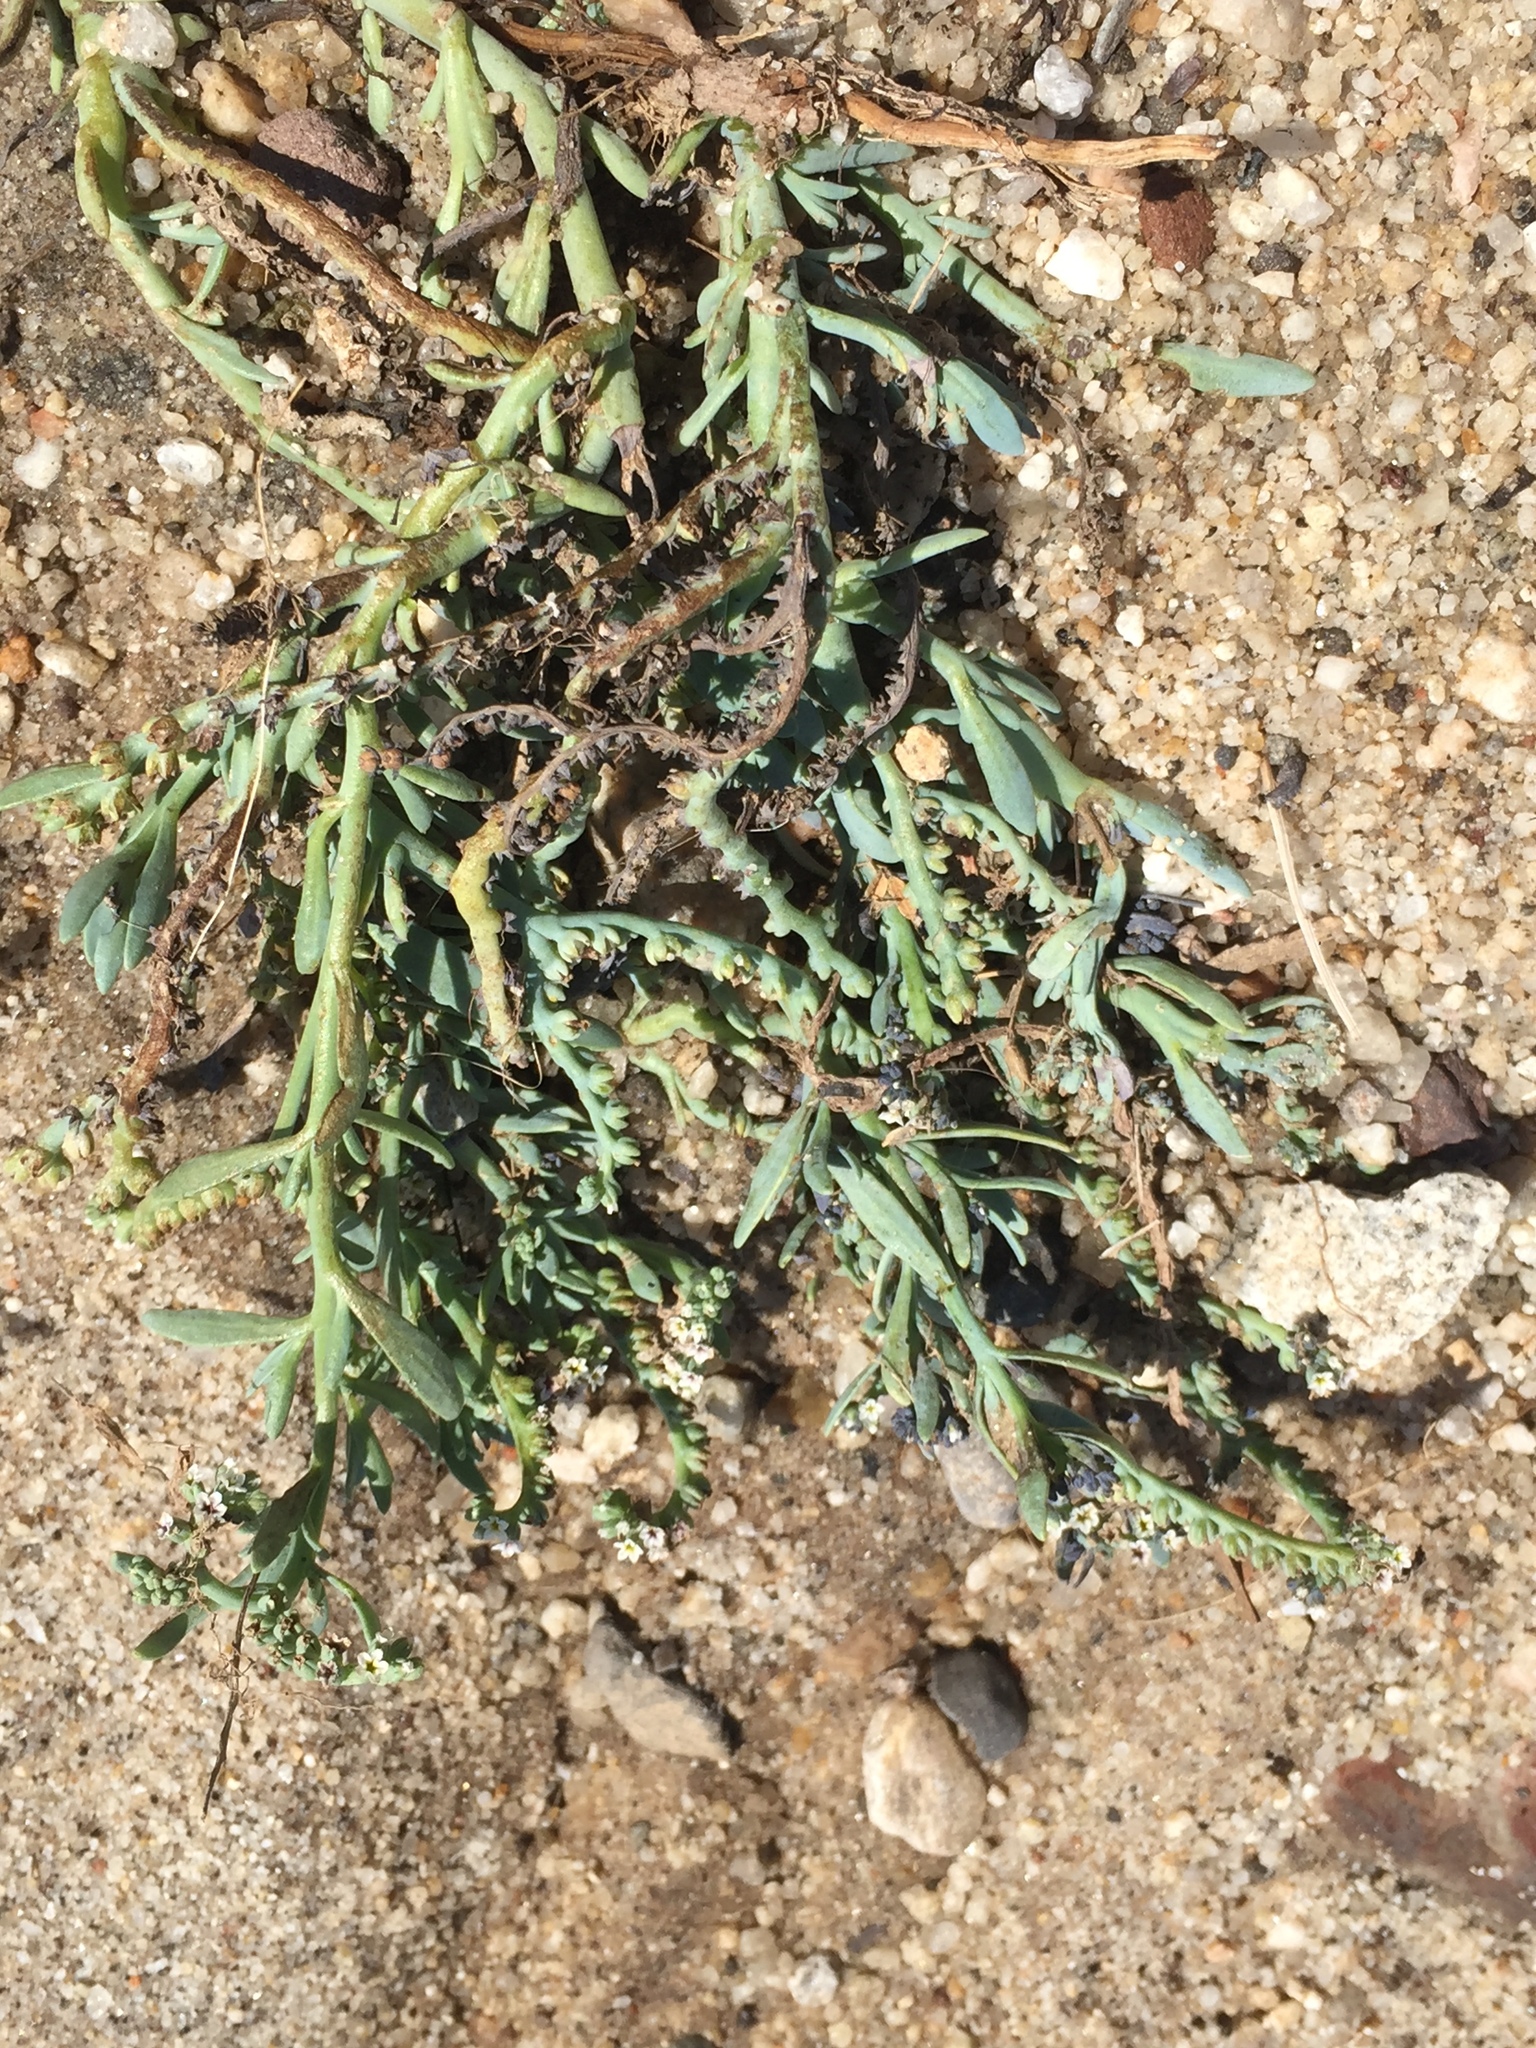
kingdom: Plantae
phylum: Tracheophyta
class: Magnoliopsida
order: Boraginales
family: Heliotropiaceae
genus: Heliotropium
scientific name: Heliotropium curassavicum
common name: Seaside heliotrope
